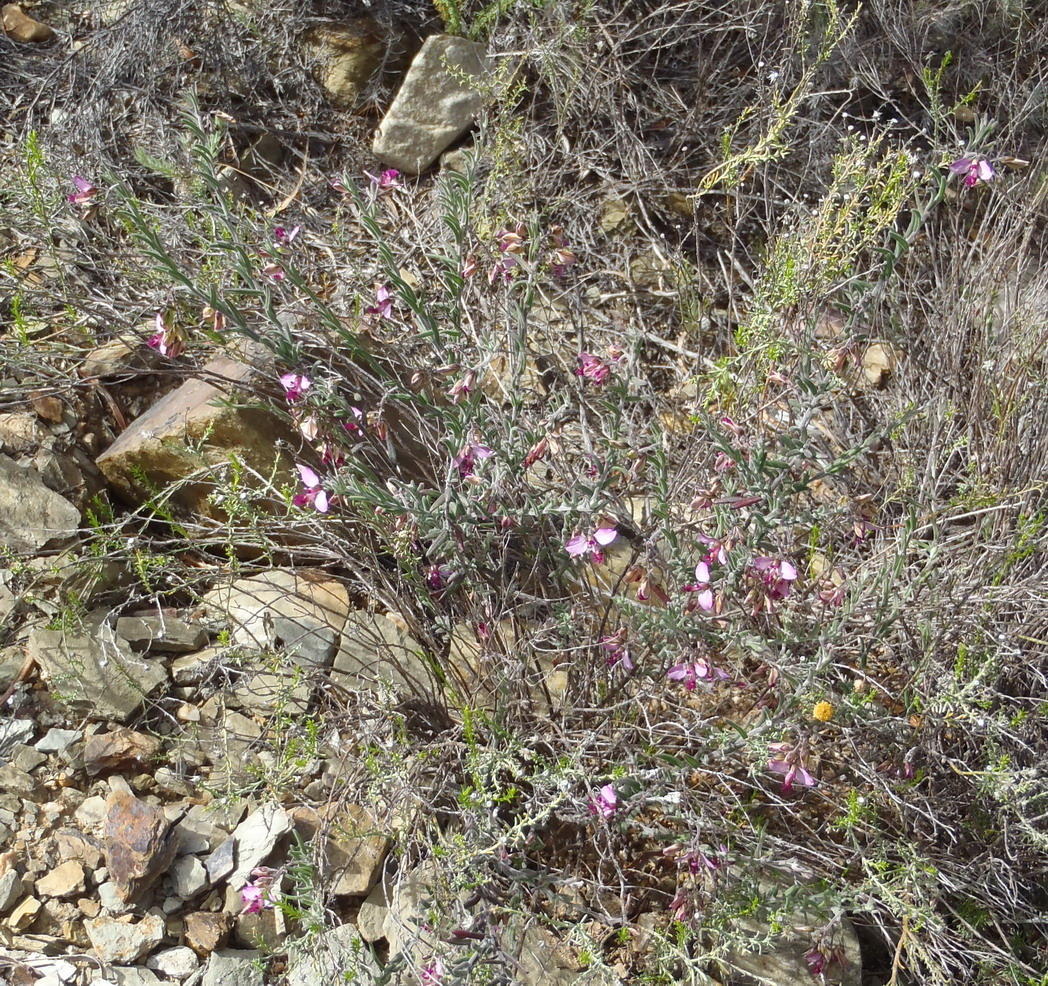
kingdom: Plantae
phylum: Tracheophyta
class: Magnoliopsida
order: Fabales
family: Polygalaceae
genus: Polygala
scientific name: Polygala scabra
